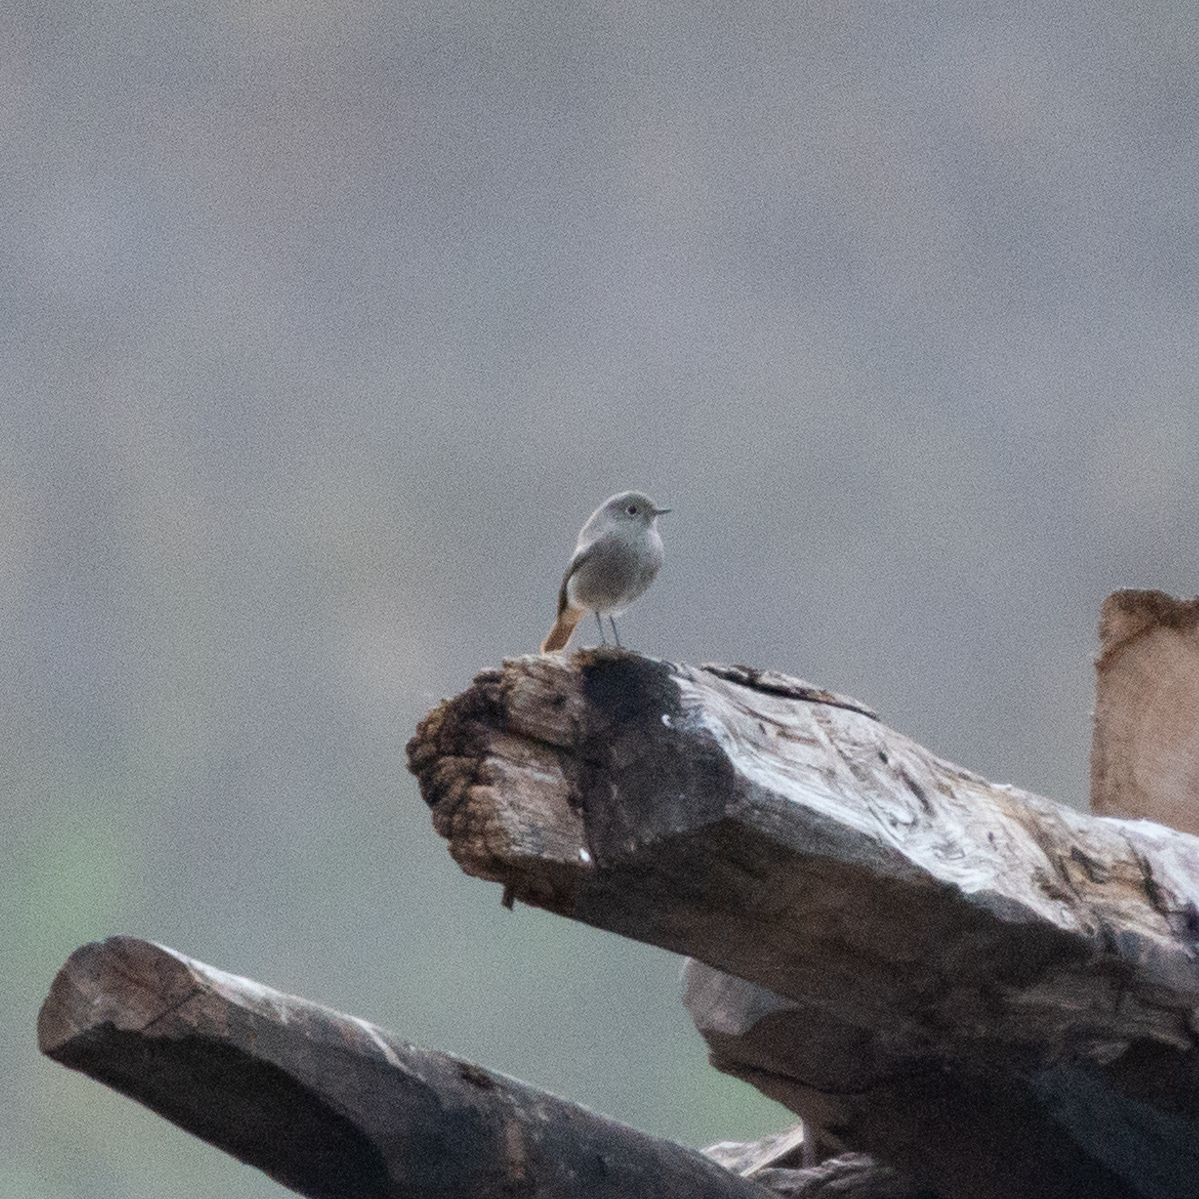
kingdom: Animalia
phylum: Chordata
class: Aves
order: Passeriformes
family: Muscicapidae
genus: Phoenicurus
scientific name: Phoenicurus ochruros
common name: Black redstart
